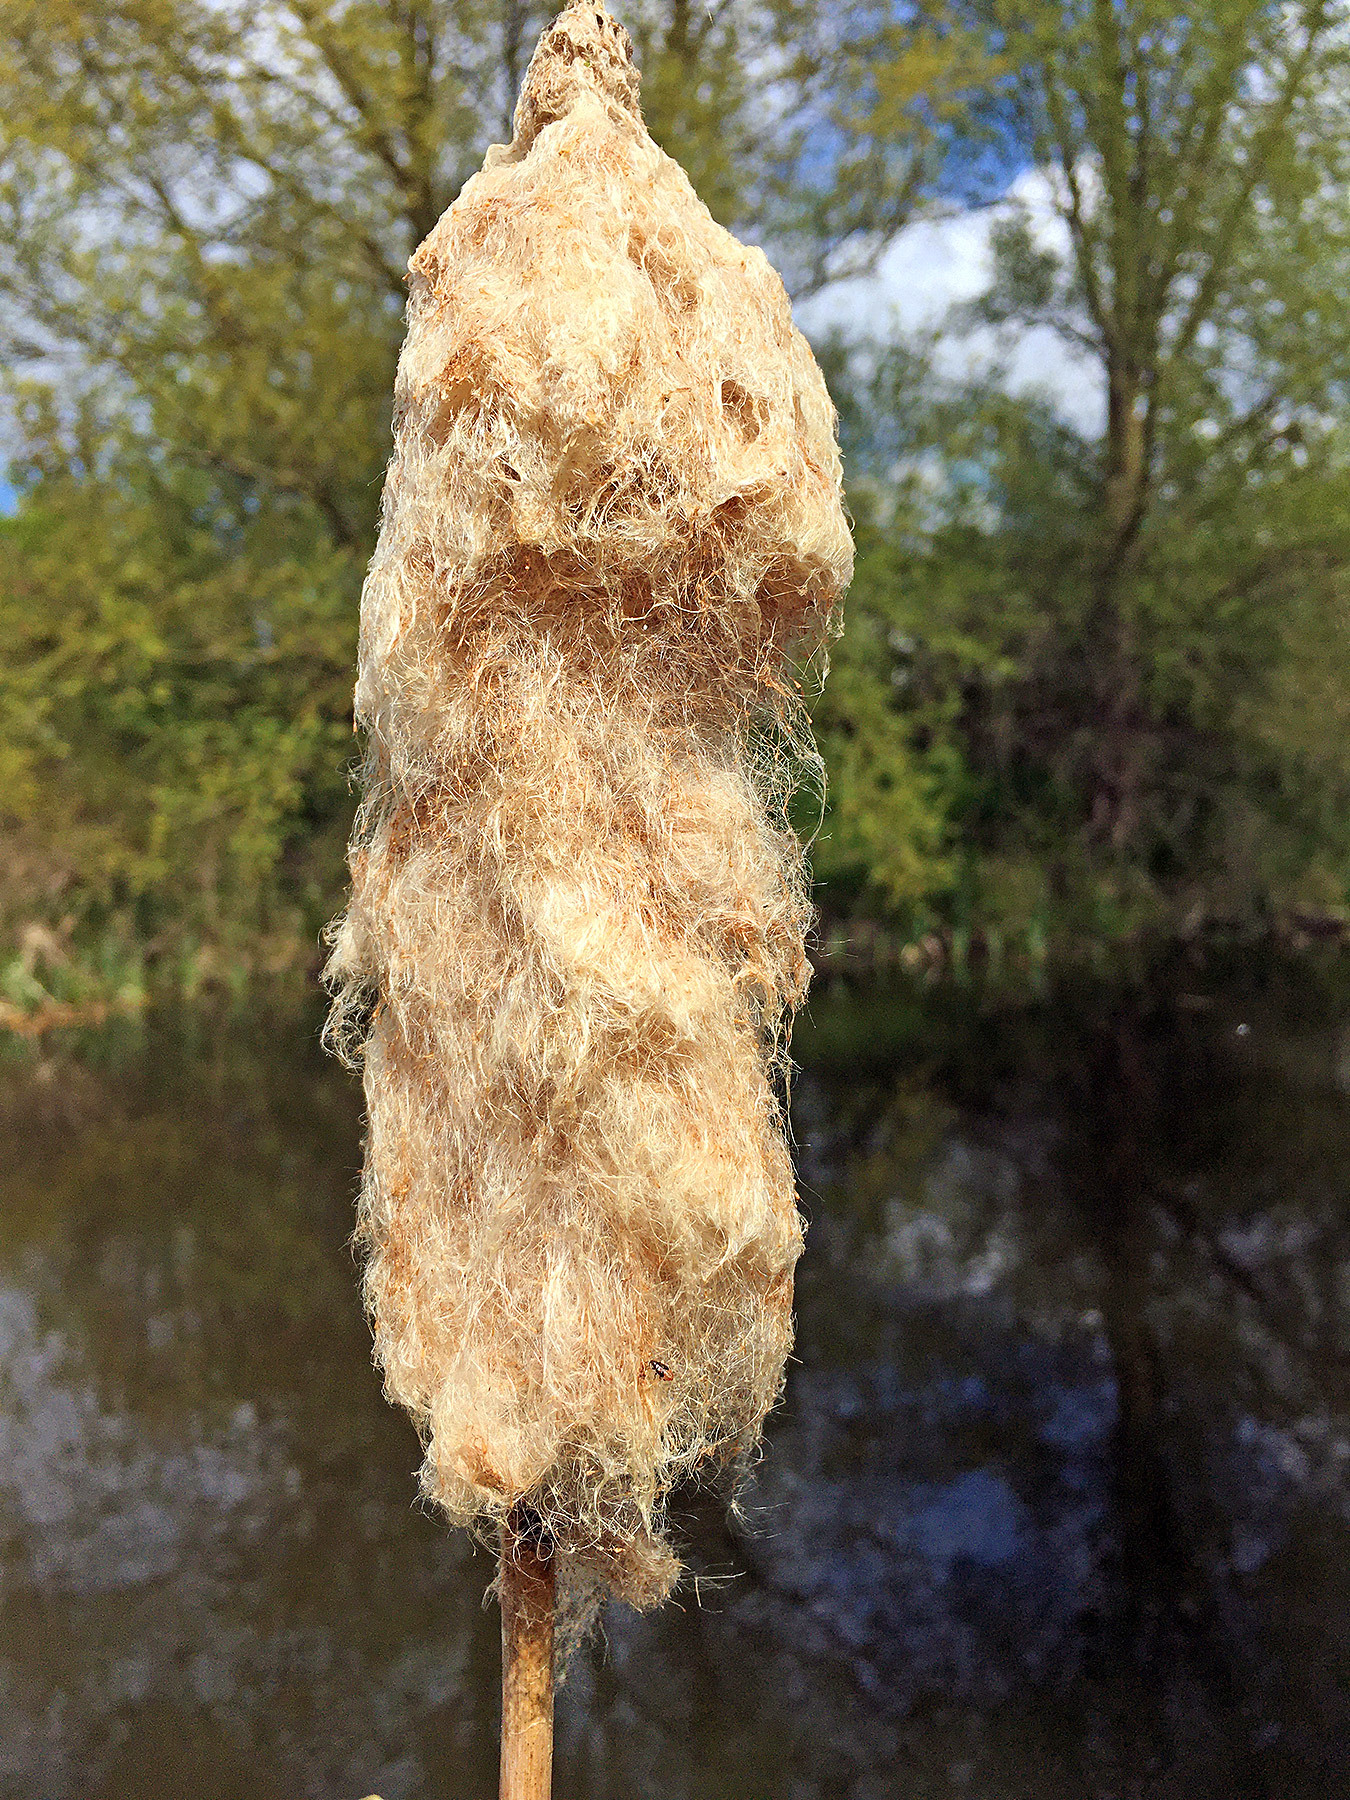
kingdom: Plantae
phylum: Tracheophyta
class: Liliopsida
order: Poales
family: Typhaceae
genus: Typha
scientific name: Typha latifolia
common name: Broadleaf cattail
